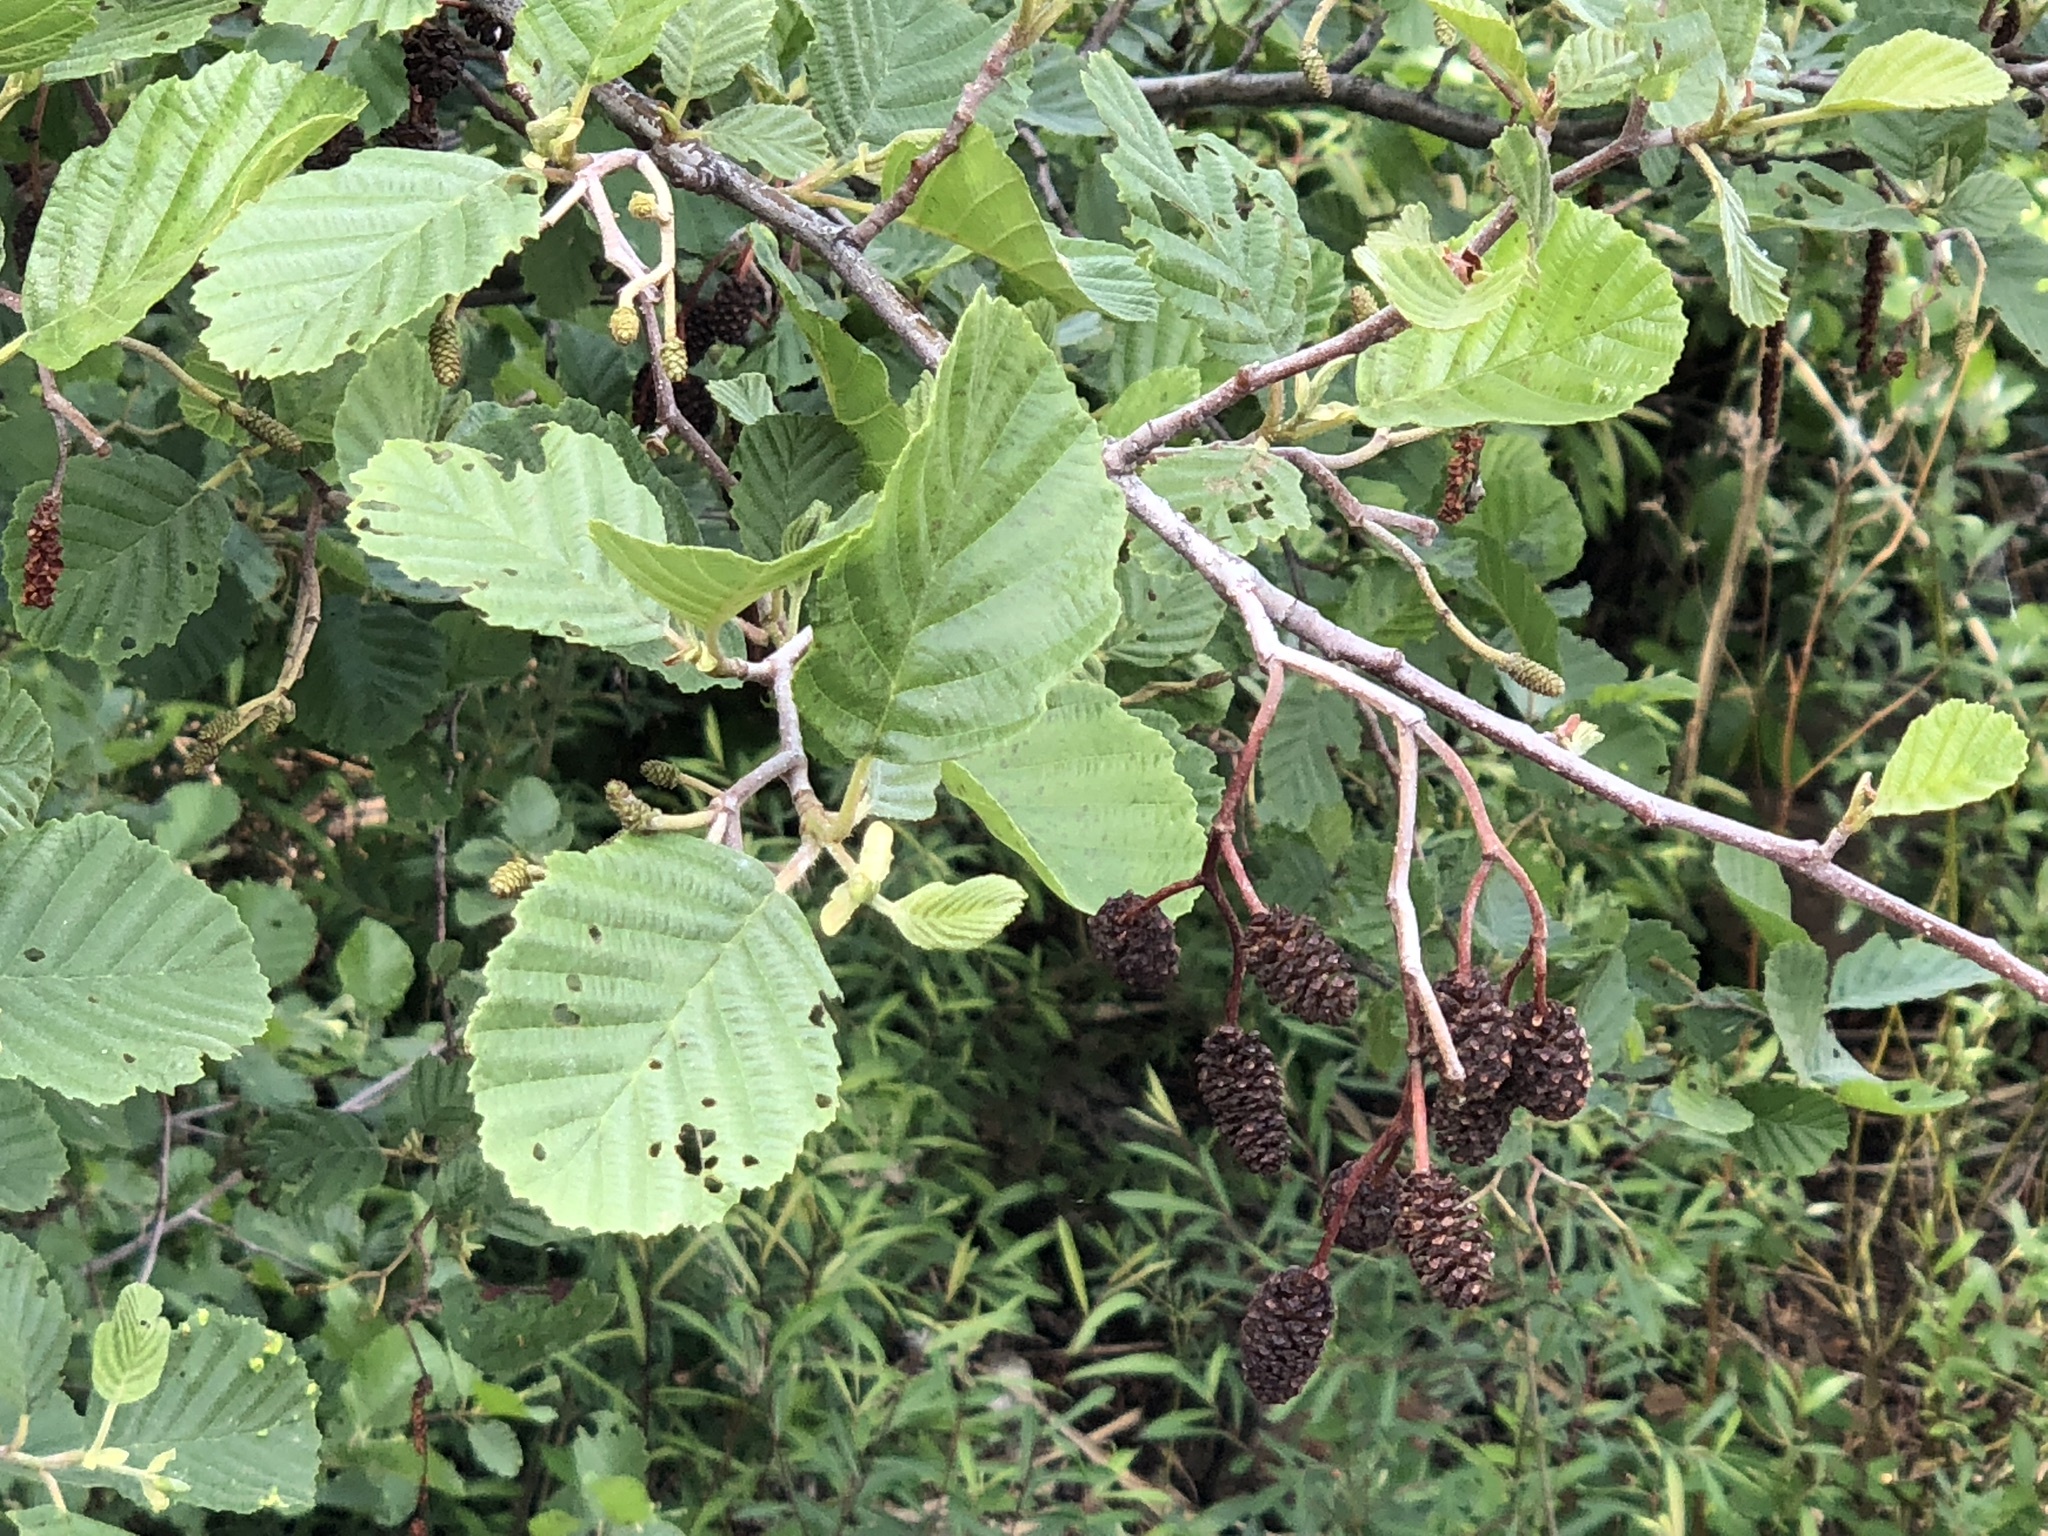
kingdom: Plantae
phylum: Tracheophyta
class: Magnoliopsida
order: Fagales
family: Betulaceae
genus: Alnus
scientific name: Alnus glutinosa
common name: Black alder
